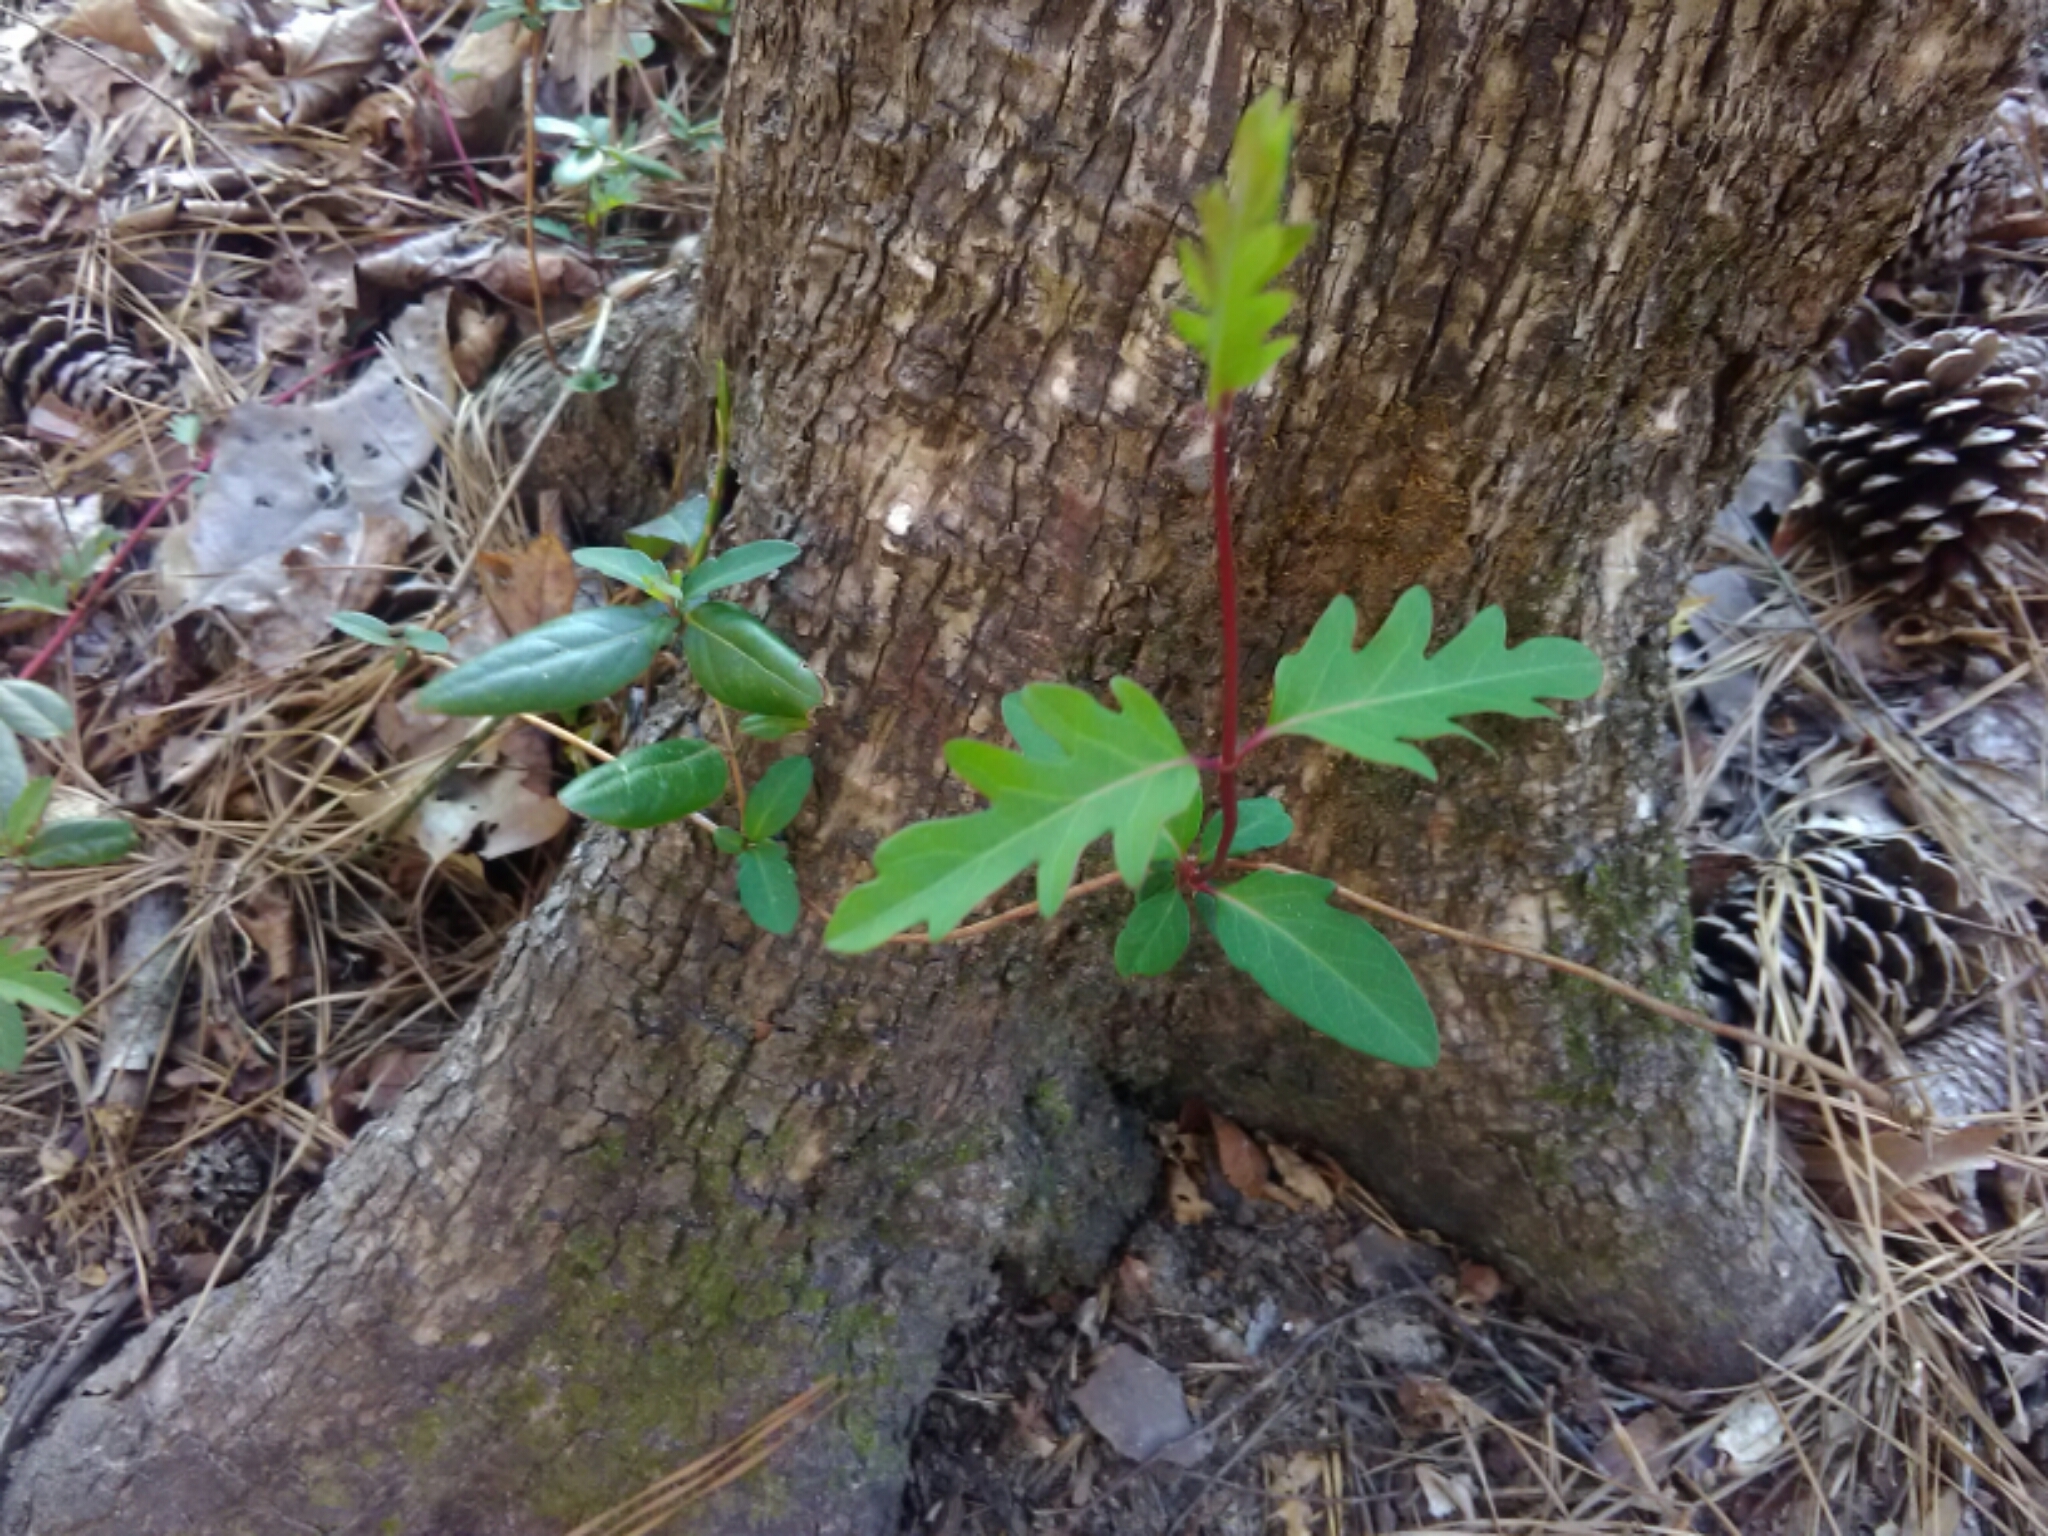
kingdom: Plantae
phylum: Tracheophyta
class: Magnoliopsida
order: Dipsacales
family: Caprifoliaceae
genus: Lonicera
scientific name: Lonicera japonica
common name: Japanese honeysuckle
